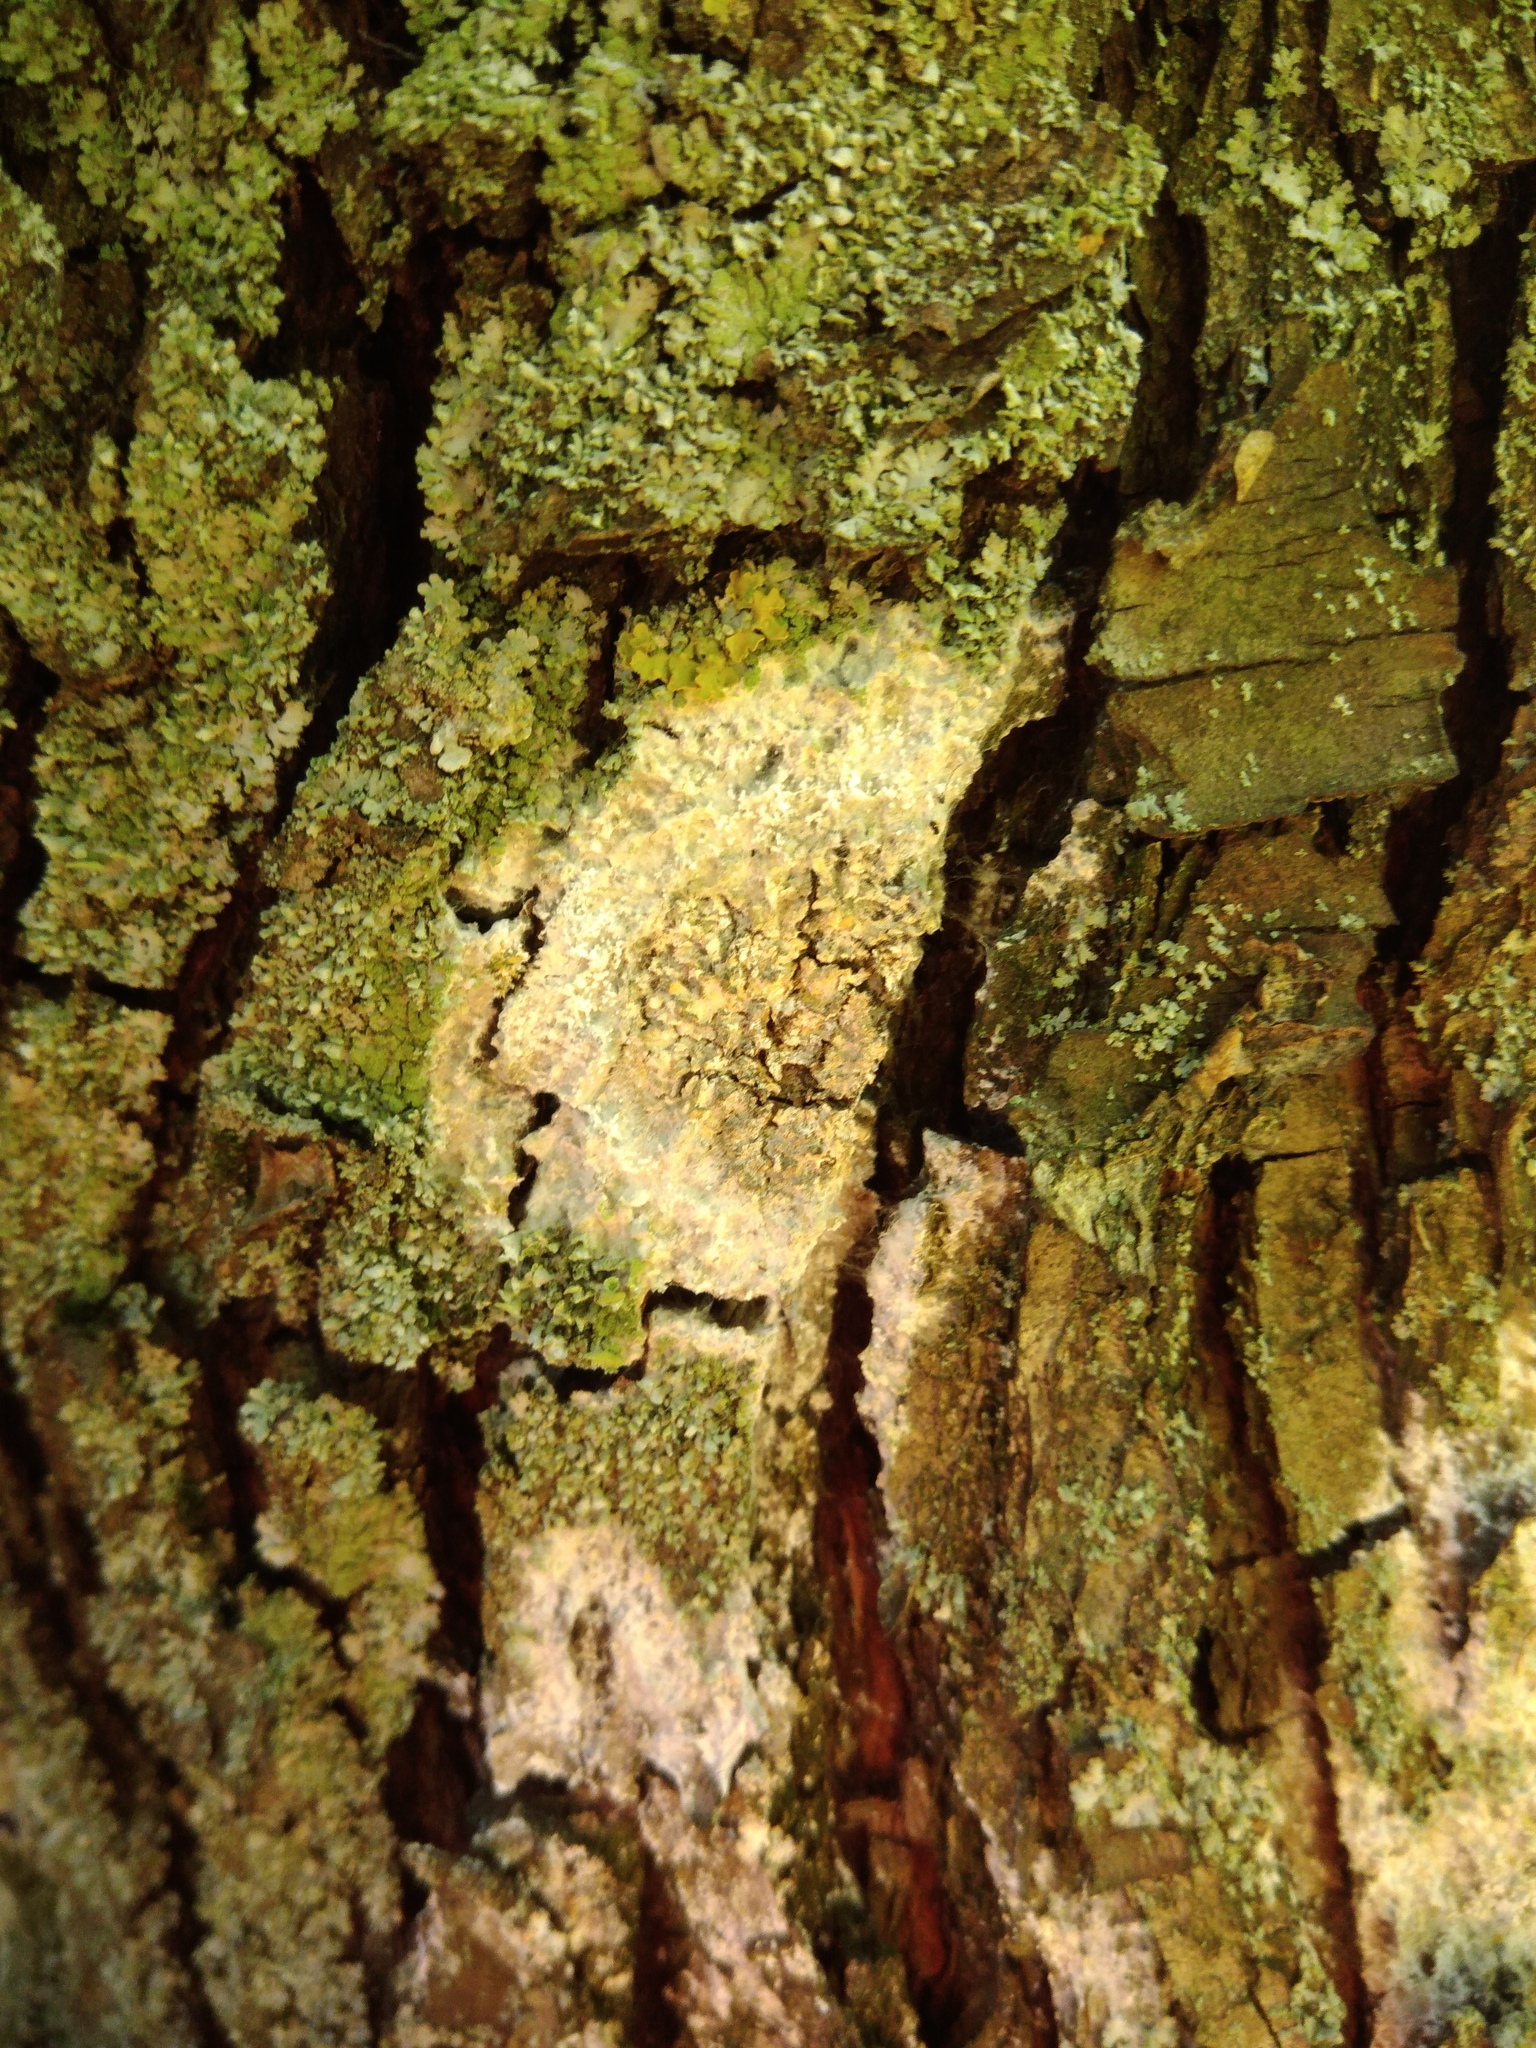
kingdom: Fungi
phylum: Basidiomycota
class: Agaricomycetes
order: Atheliales
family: Atheliaceae
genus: Athelia
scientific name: Athelia arachnoidea
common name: Candelabra duster
